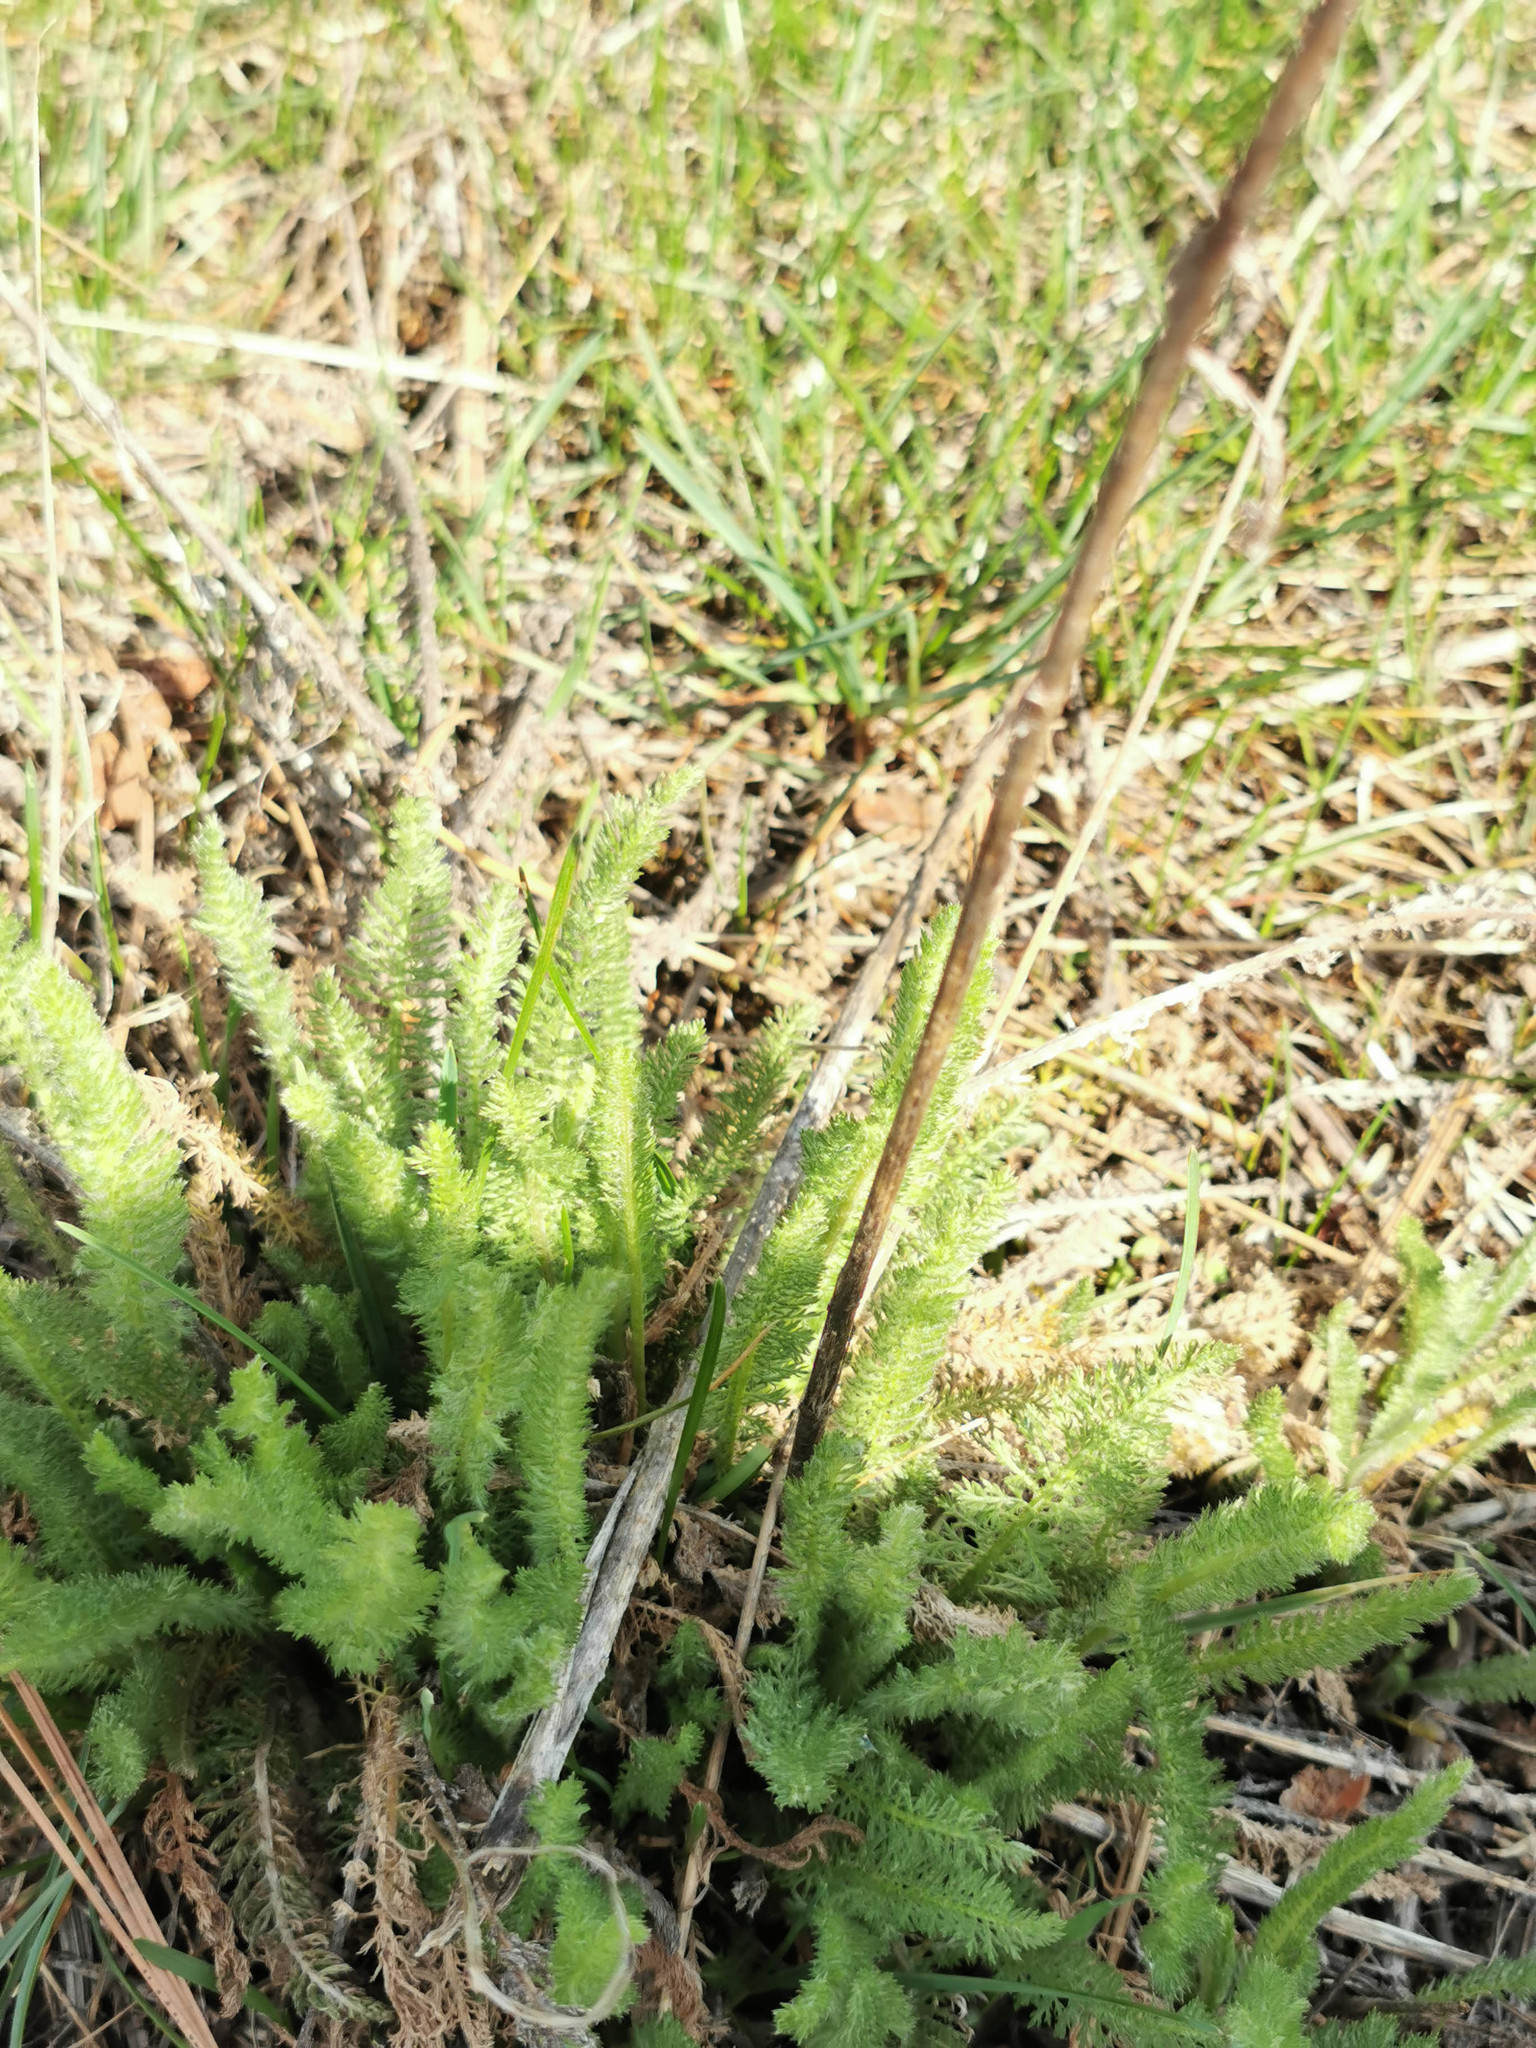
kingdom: Plantae
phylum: Tracheophyta
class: Magnoliopsida
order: Asterales
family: Asteraceae
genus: Achillea
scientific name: Achillea millefolium
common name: Yarrow
